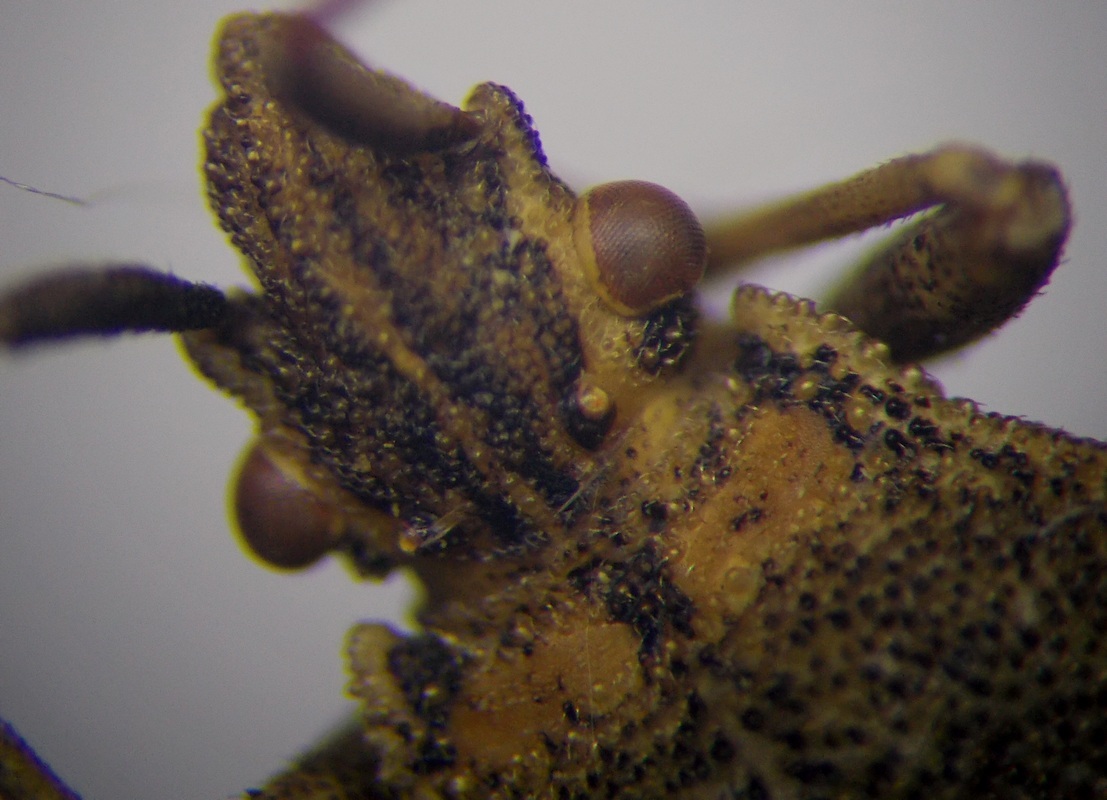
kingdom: Animalia
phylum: Arthropoda
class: Insecta
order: Hemiptera
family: Coreidae
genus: Ceraleptus
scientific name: Ceraleptus gracilicornis
